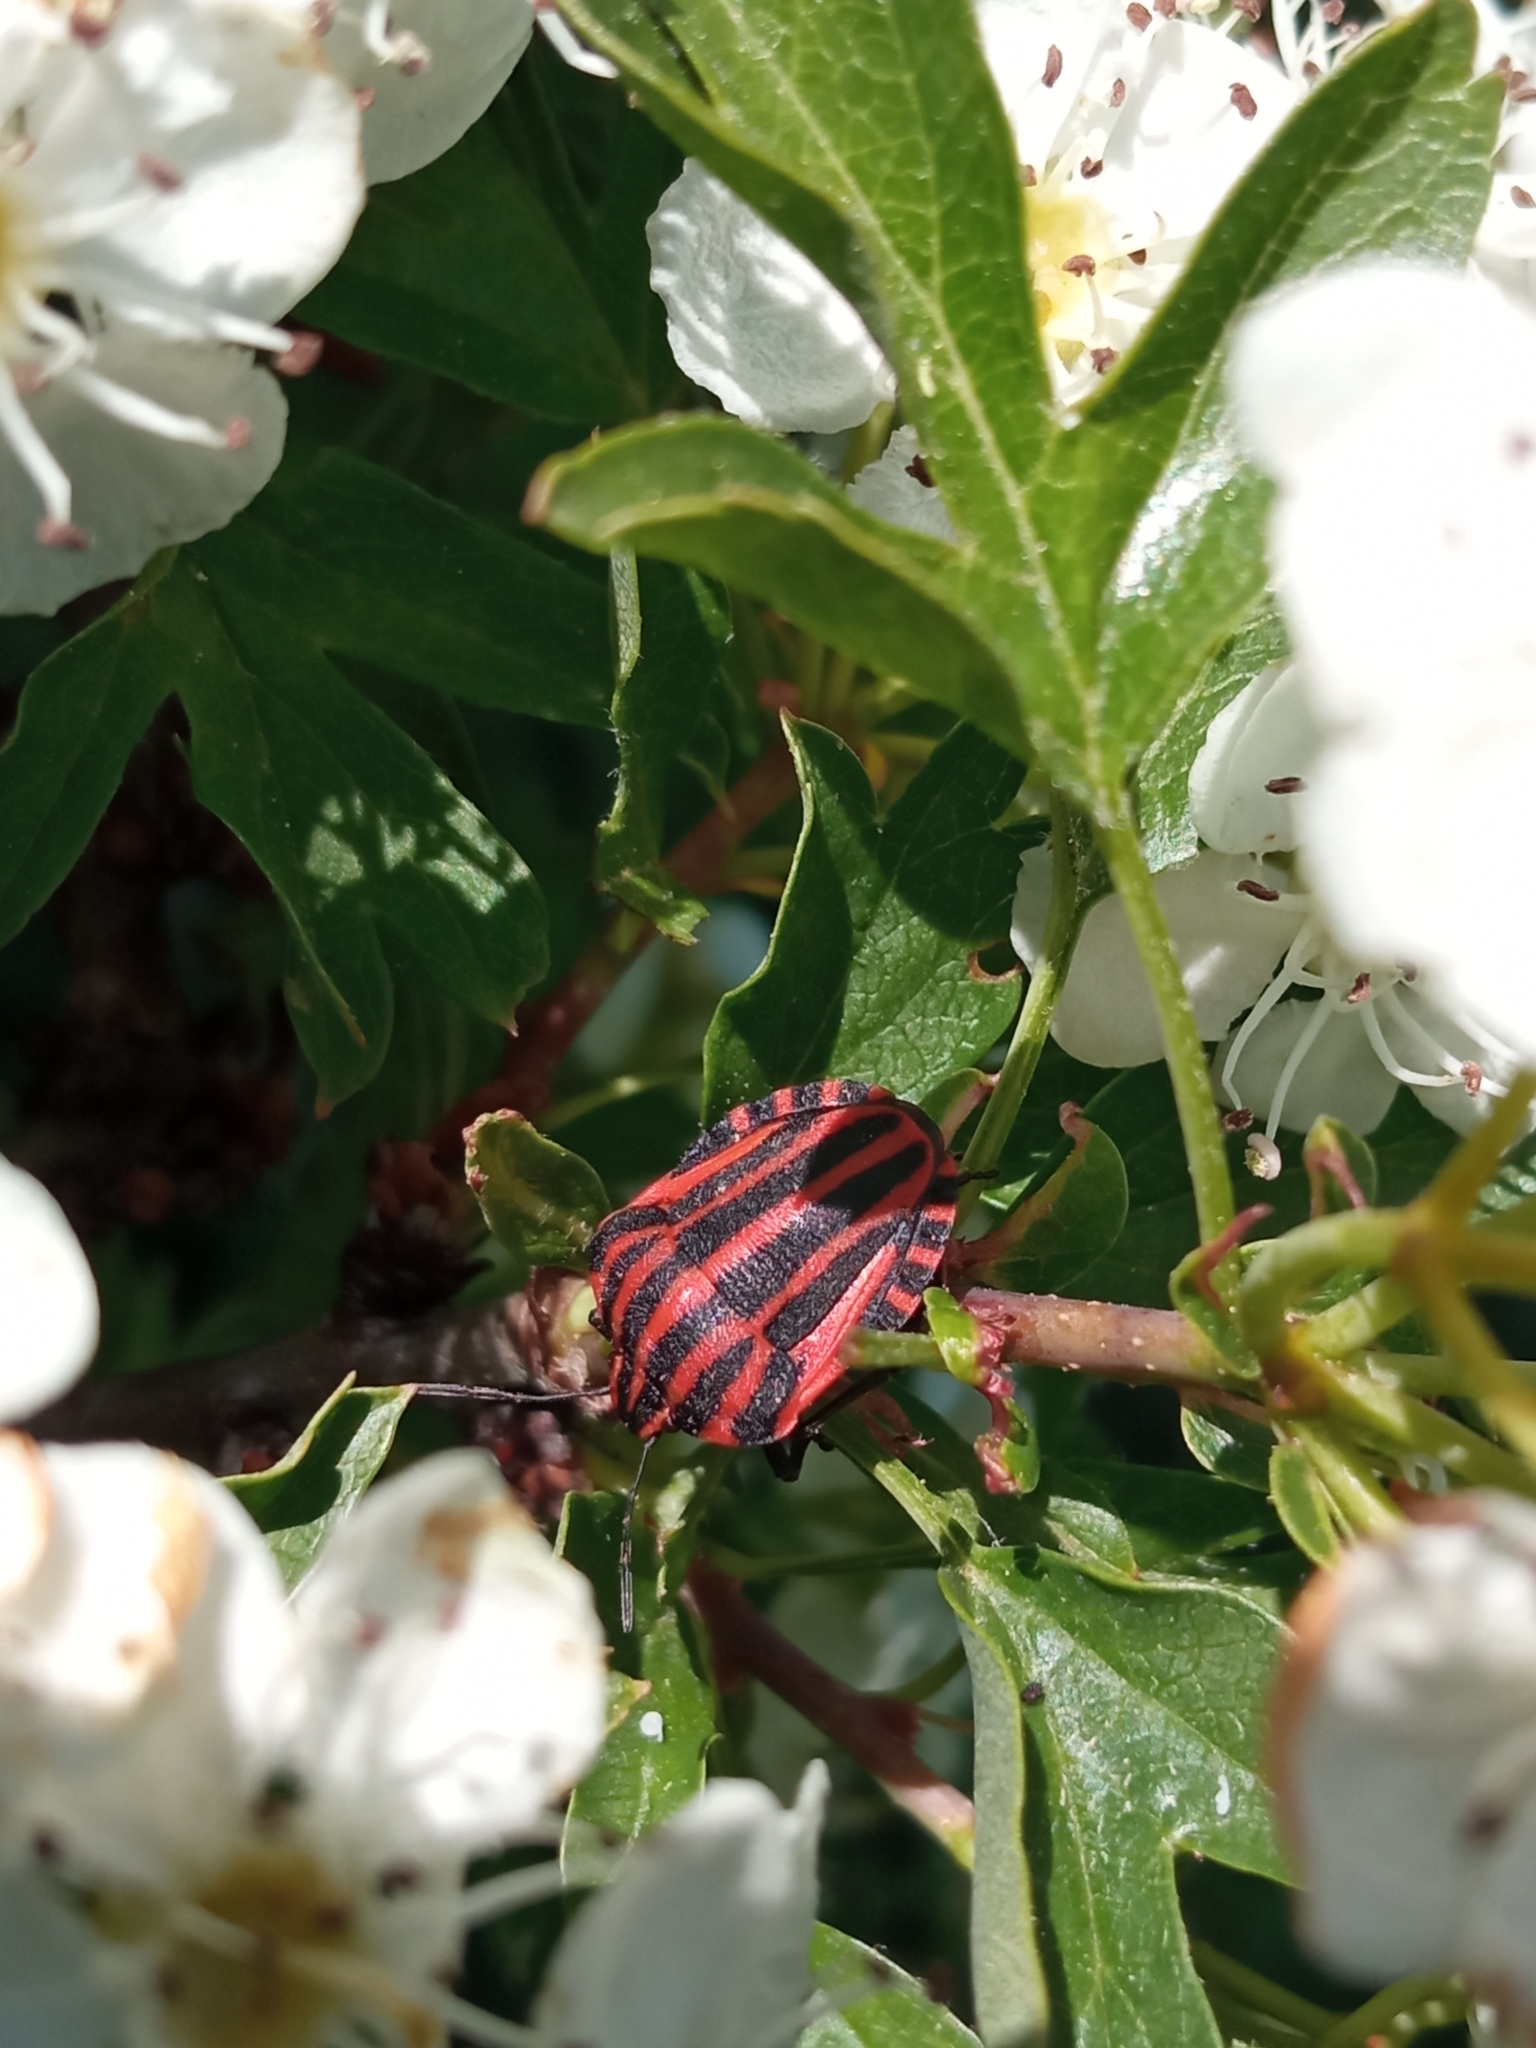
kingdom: Animalia
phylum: Arthropoda
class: Insecta
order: Hemiptera
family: Pentatomidae
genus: Graphosoma
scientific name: Graphosoma italicum
